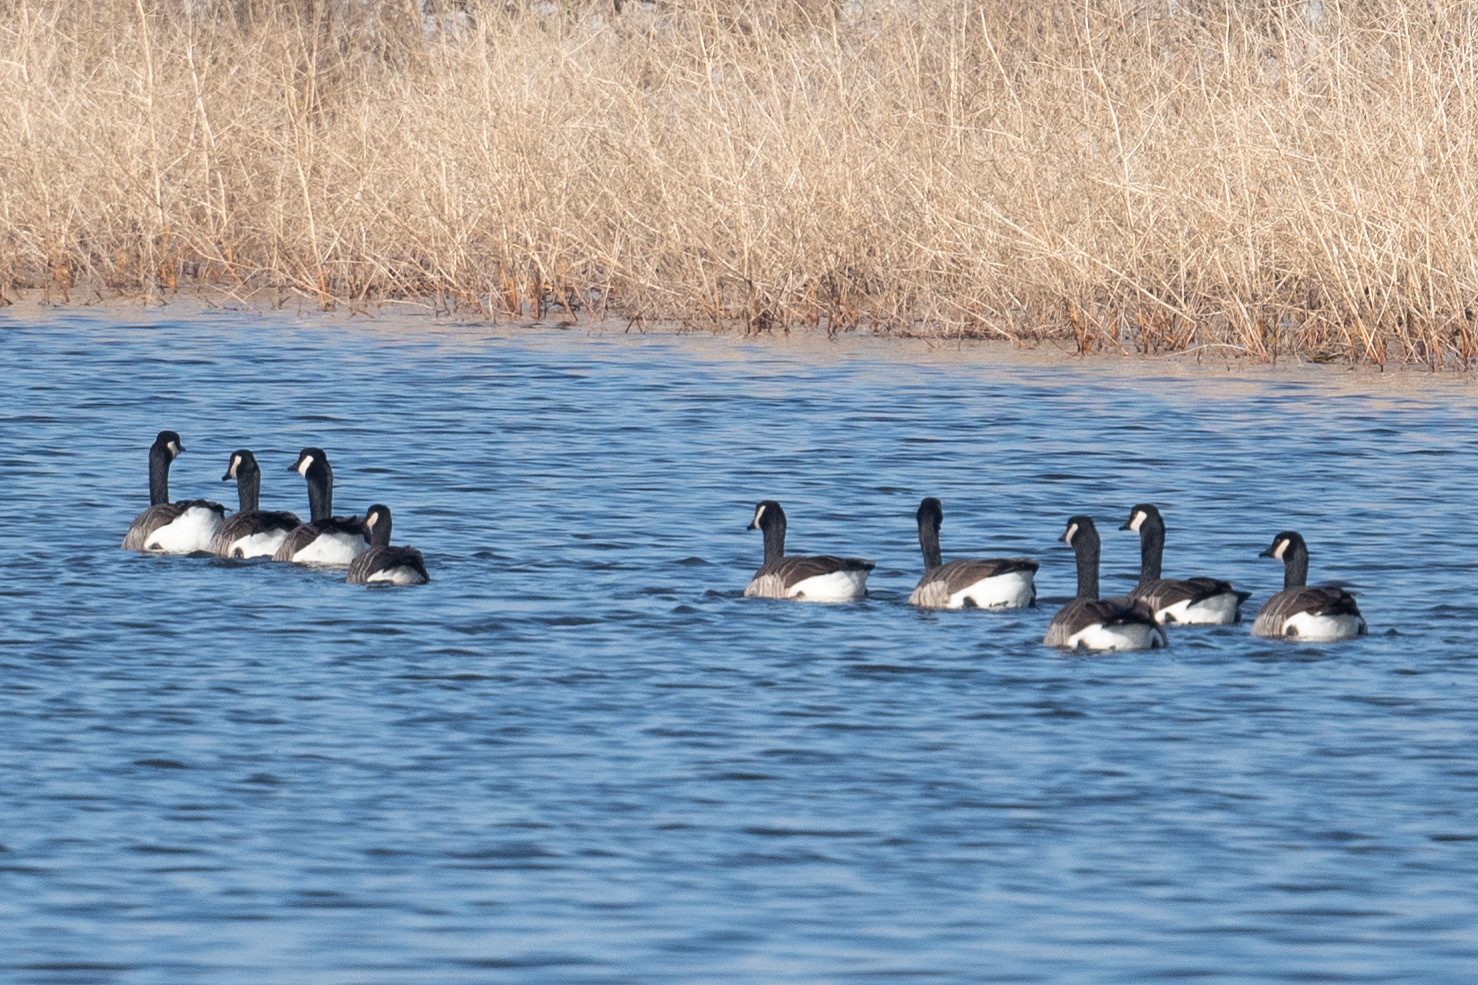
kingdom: Animalia
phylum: Chordata
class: Aves
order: Anseriformes
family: Anatidae
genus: Branta
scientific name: Branta canadensis
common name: Canada goose
